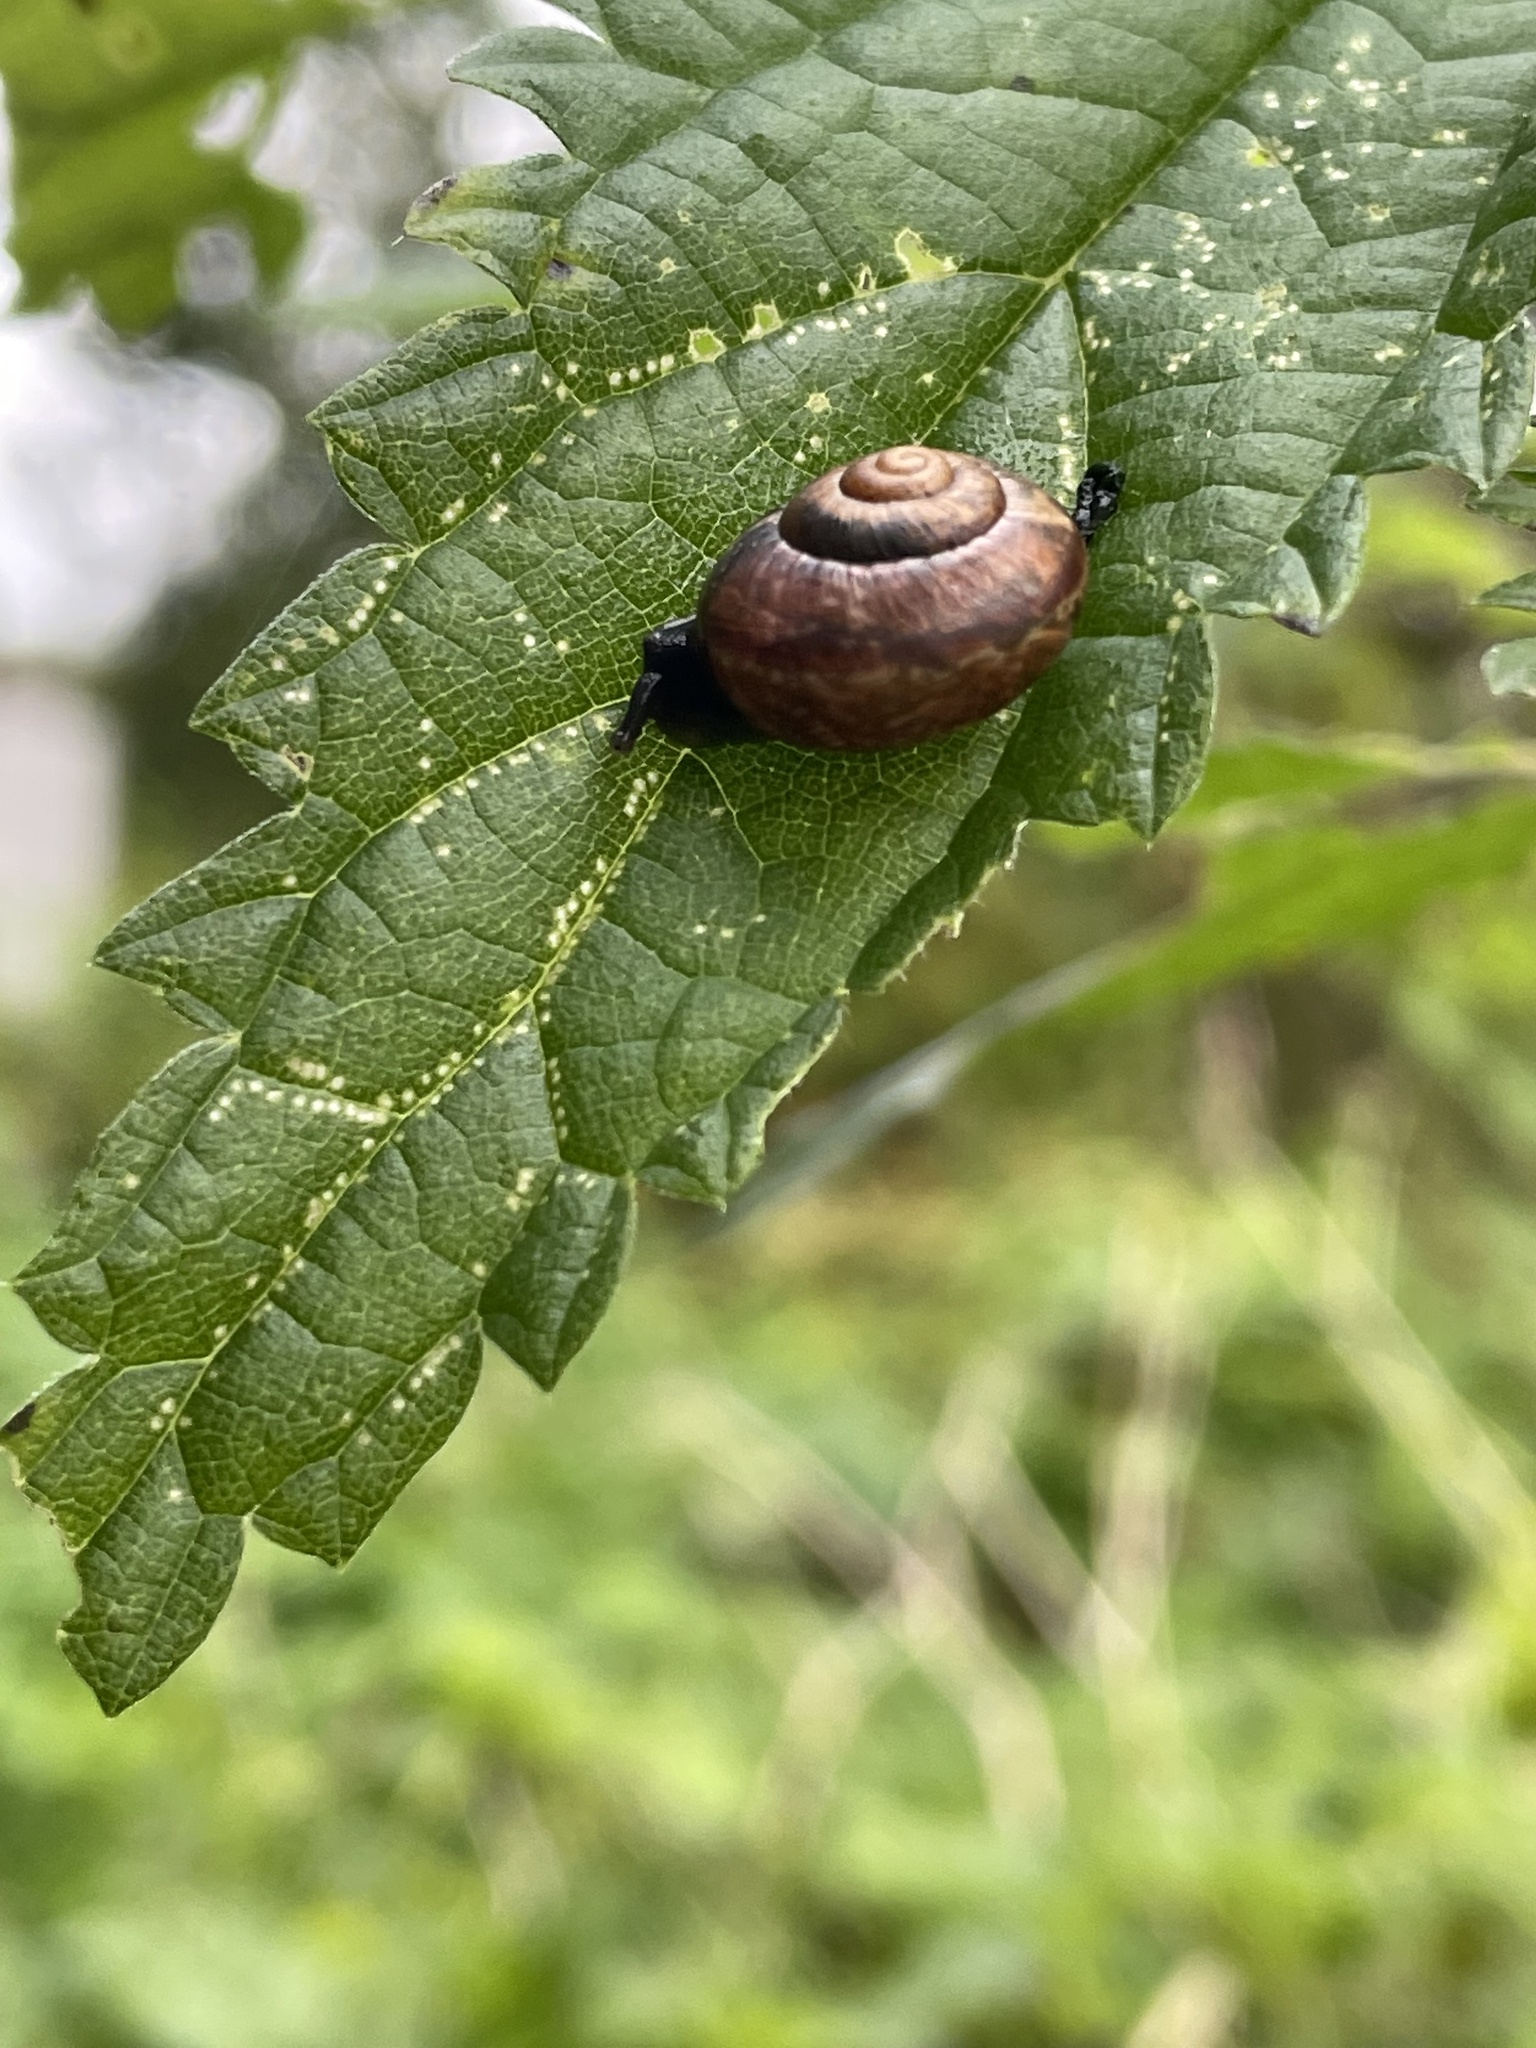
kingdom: Animalia
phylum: Mollusca
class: Gastropoda
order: Stylommatophora
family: Helicidae
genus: Arianta
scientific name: Arianta arbustorum
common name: Copse snail
